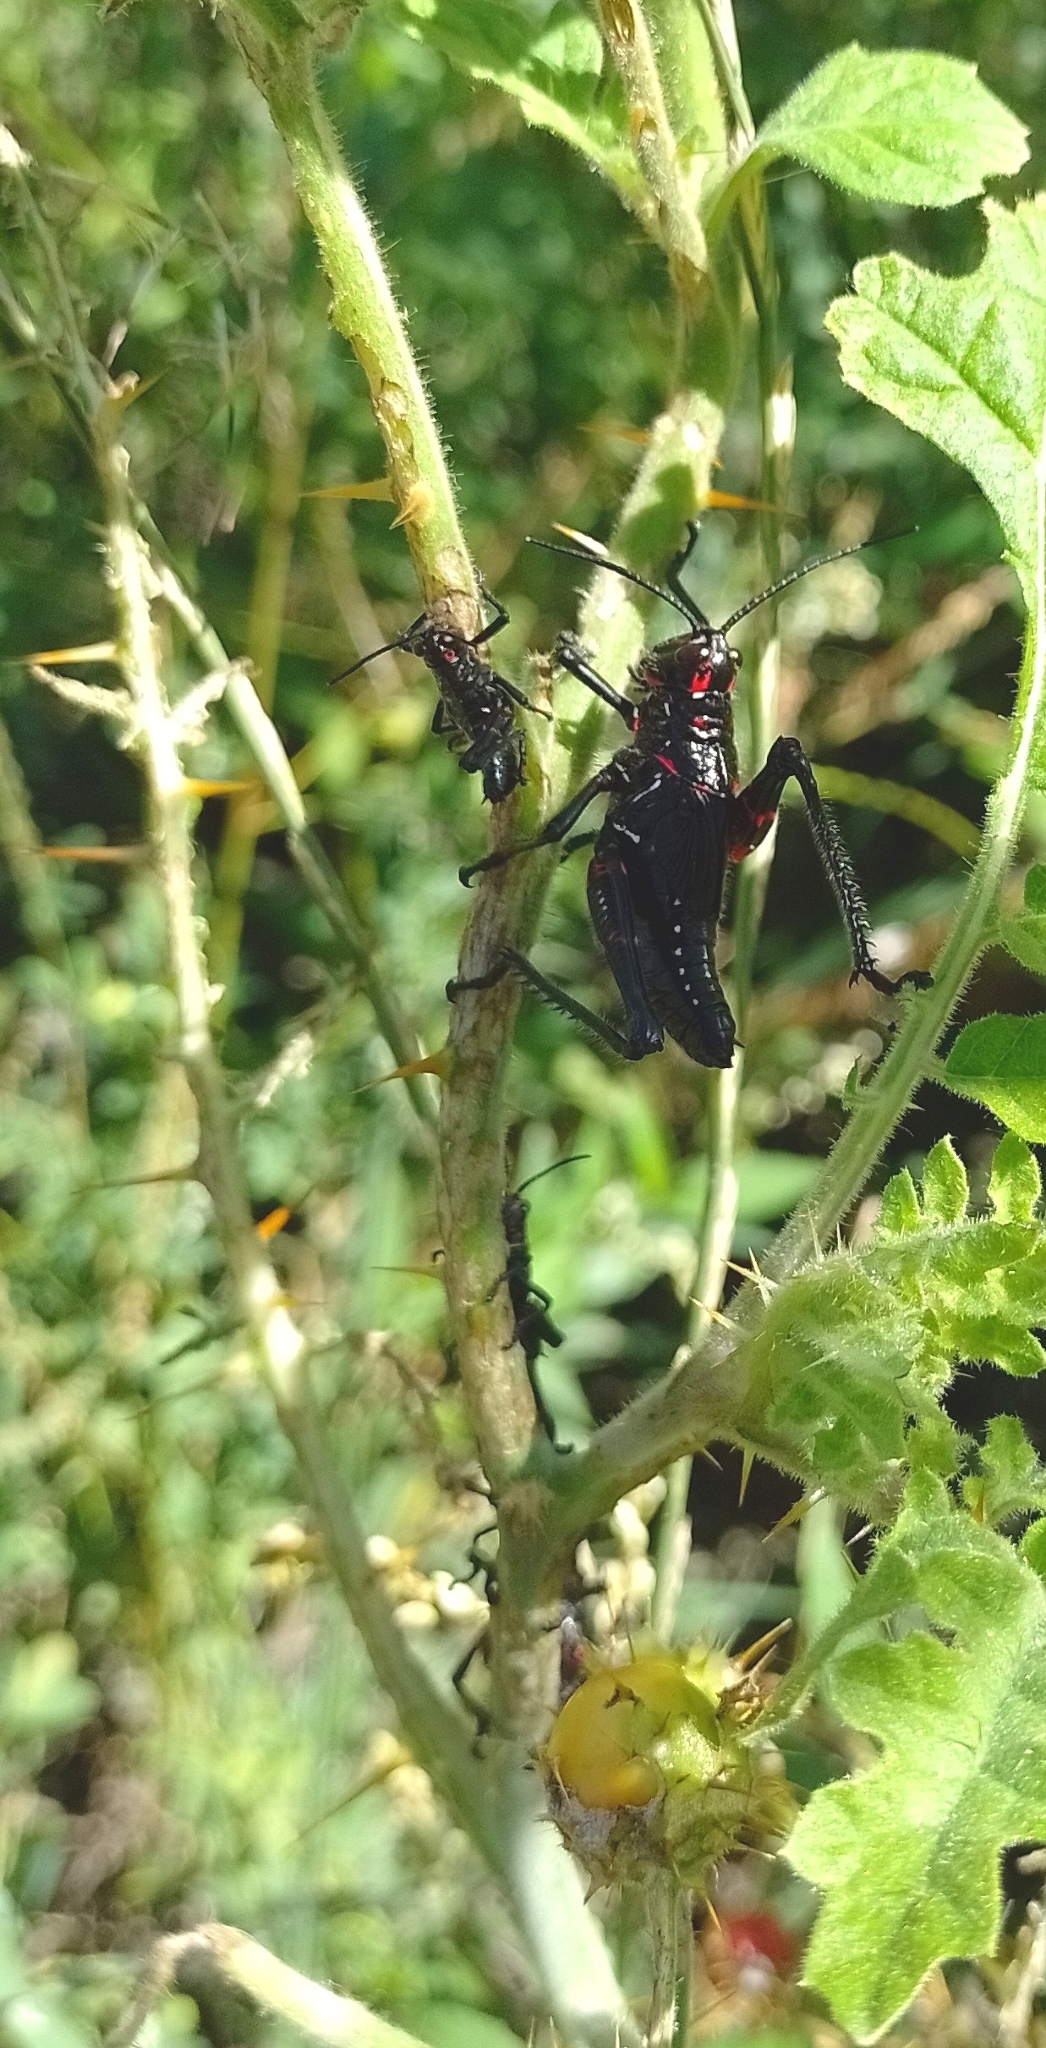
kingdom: Animalia
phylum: Arthropoda
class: Insecta
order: Orthoptera
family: Romaleidae
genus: Chromacris
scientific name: Chromacris speciosa
